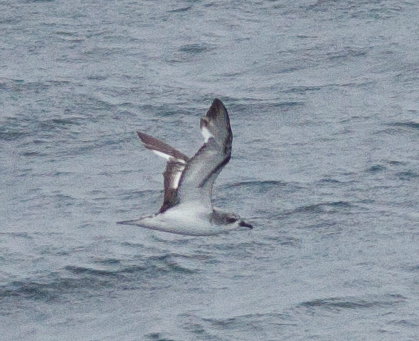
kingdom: Animalia
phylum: Chordata
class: Aves
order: Procellariiformes
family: Procellariidae
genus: Pterodroma
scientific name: Pterodroma cookii
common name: Cook's petrel
